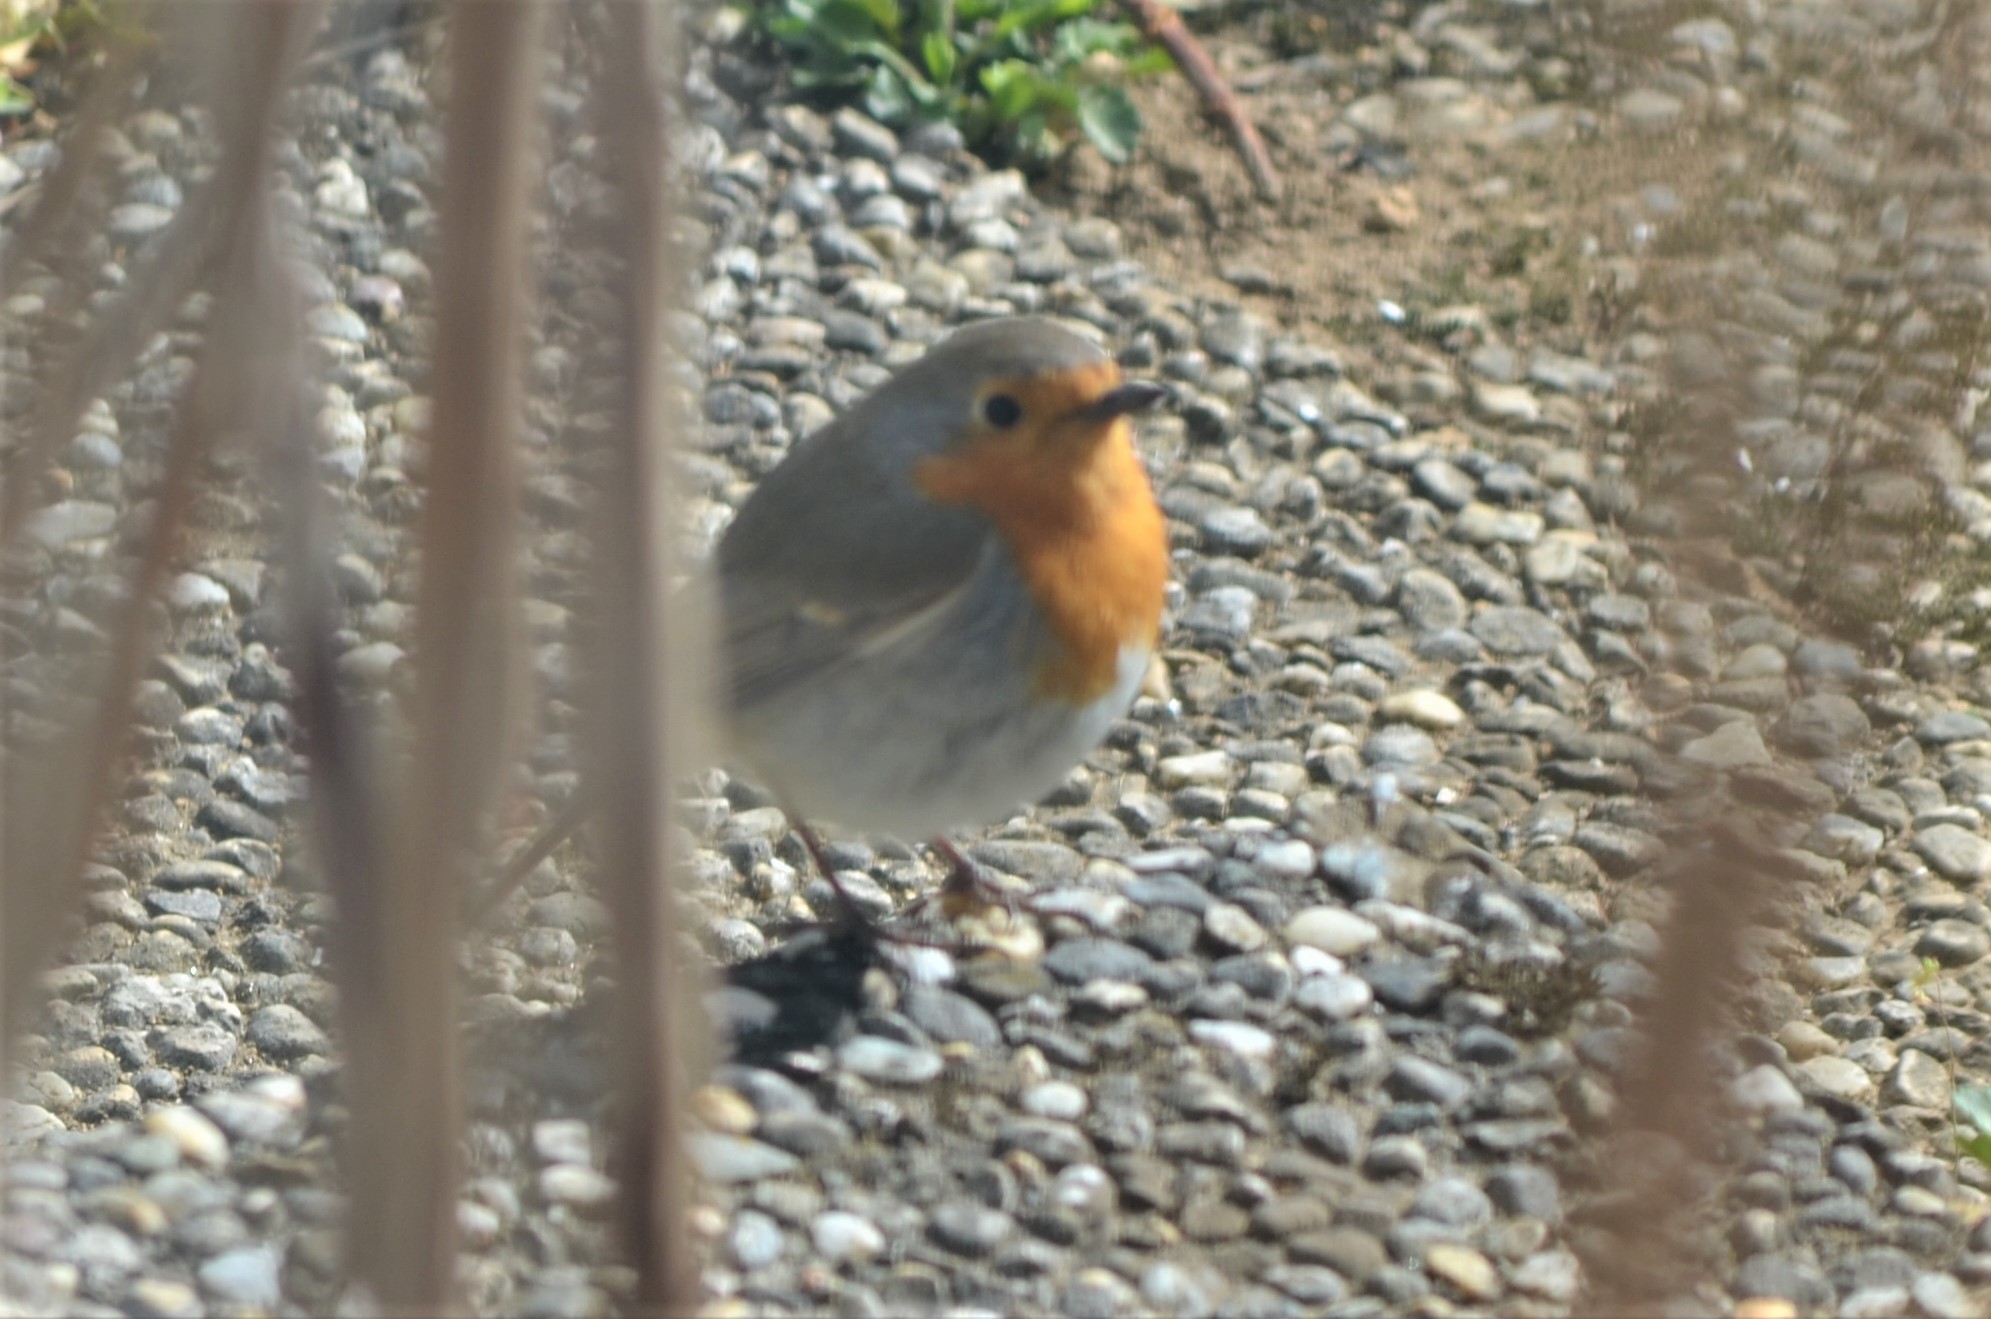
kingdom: Animalia
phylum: Chordata
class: Aves
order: Passeriformes
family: Muscicapidae
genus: Erithacus
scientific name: Erithacus rubecula
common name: European robin
